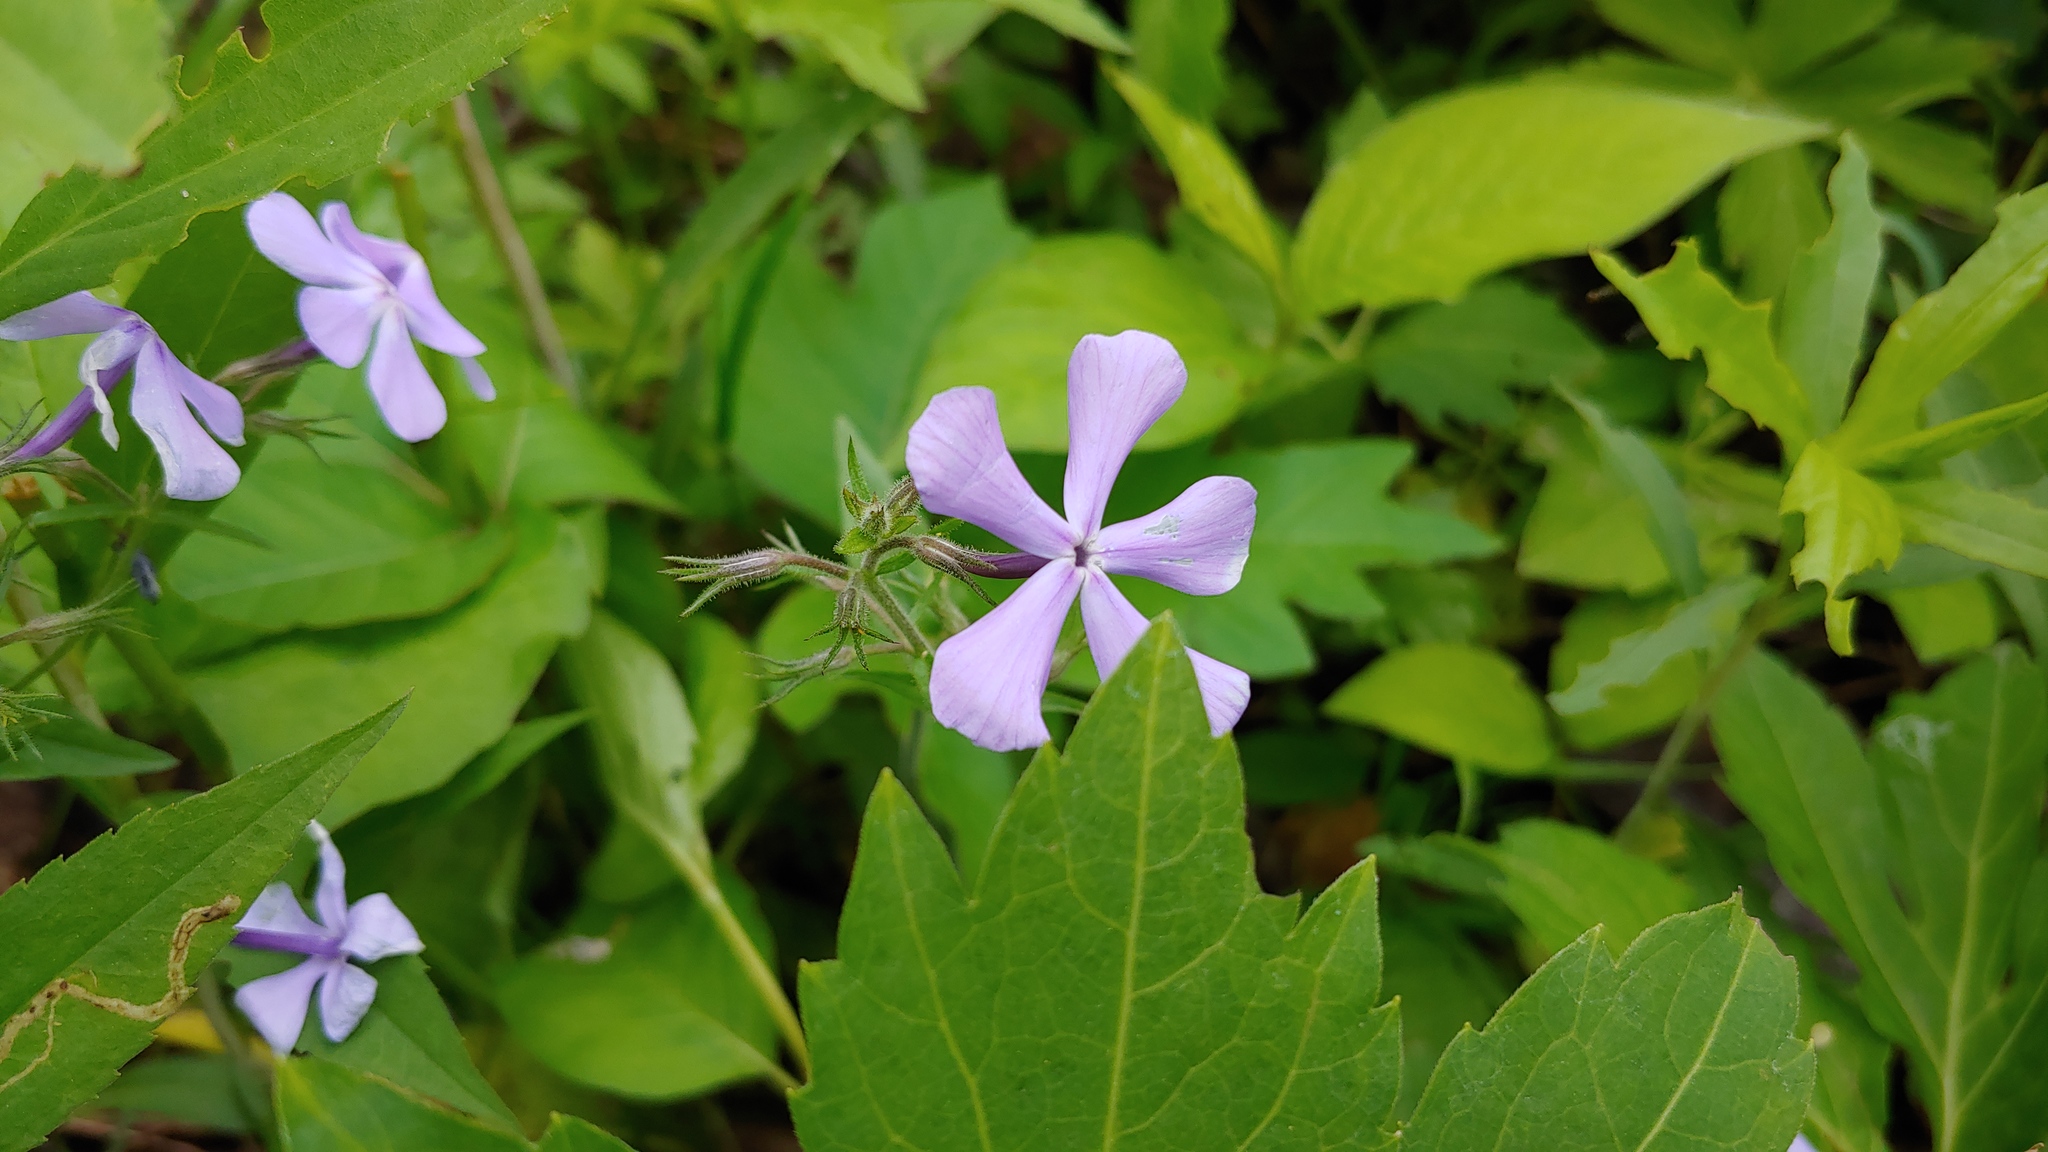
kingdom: Plantae
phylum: Tracheophyta
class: Magnoliopsida
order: Ericales
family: Polemoniaceae
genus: Phlox
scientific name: Phlox divaricata
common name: Blue phlox
